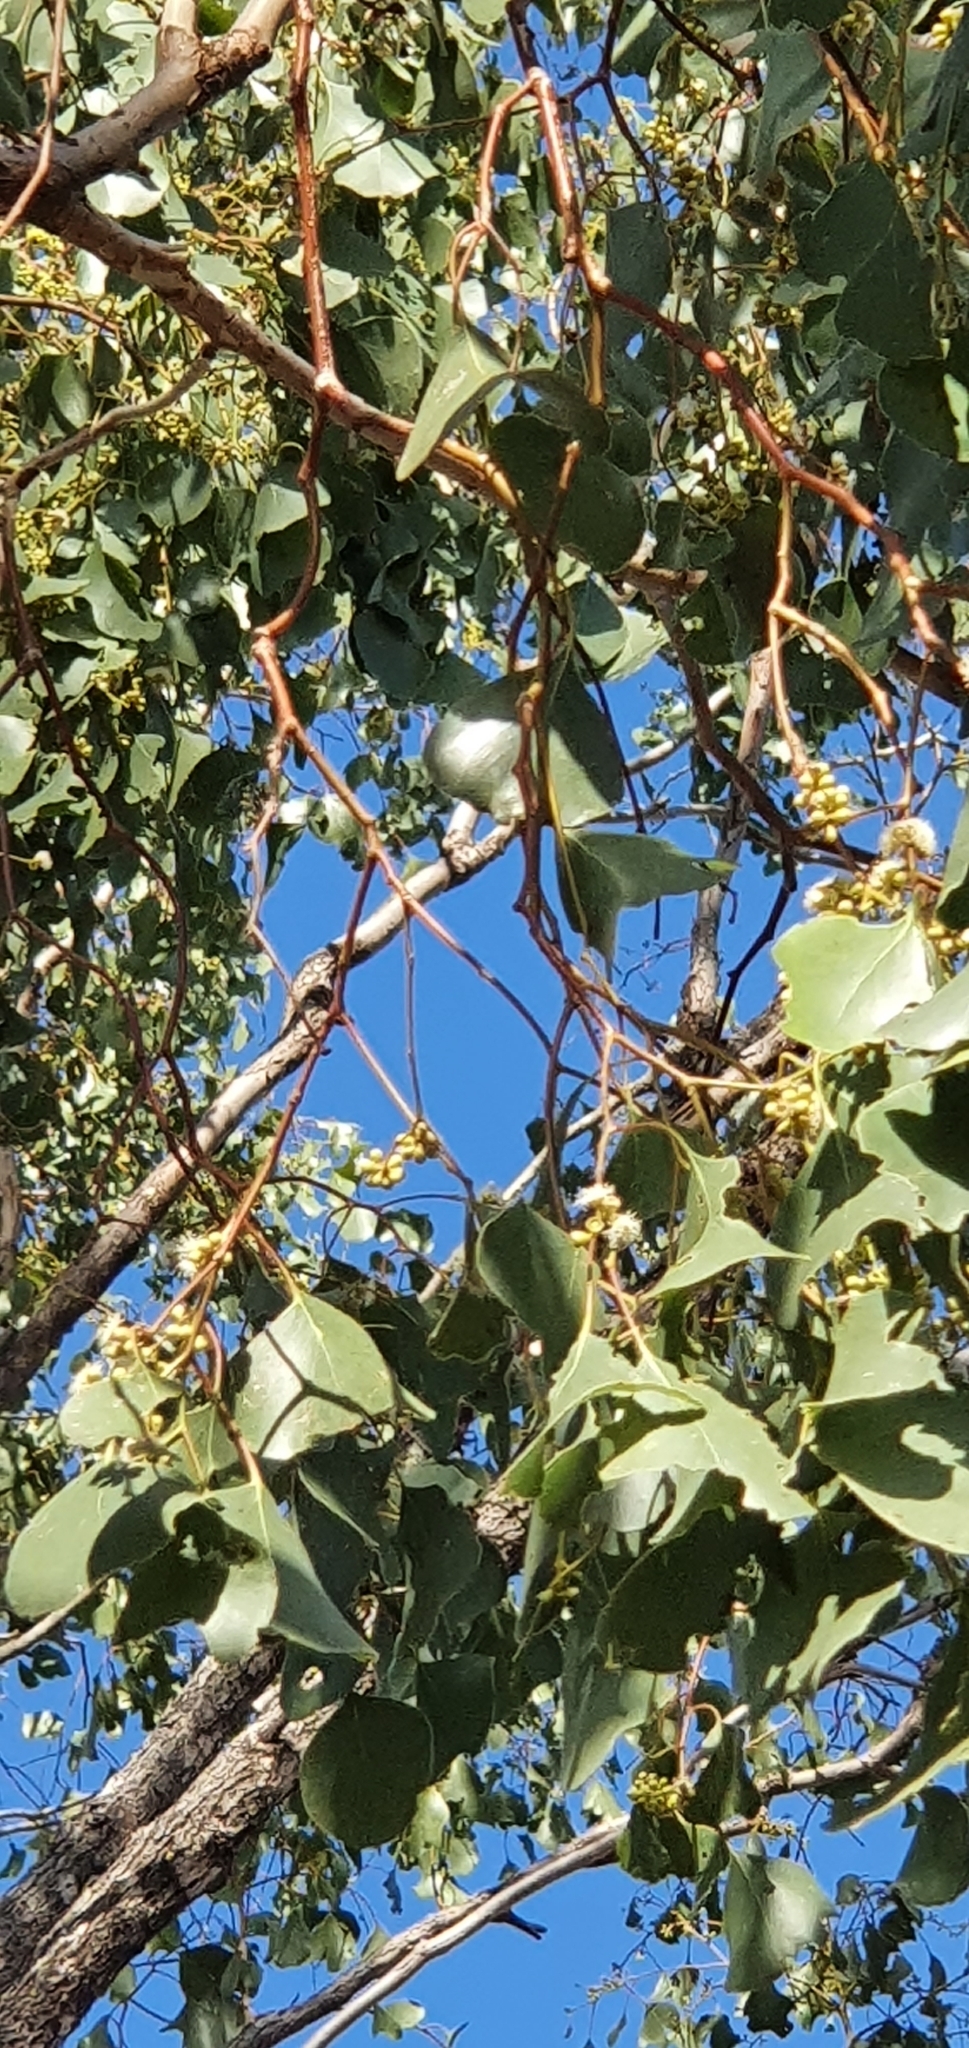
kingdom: Plantae
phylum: Tracheophyta
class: Magnoliopsida
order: Myrtales
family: Myrtaceae
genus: Eucalyptus
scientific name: Eucalyptus populnea
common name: Bimble box
